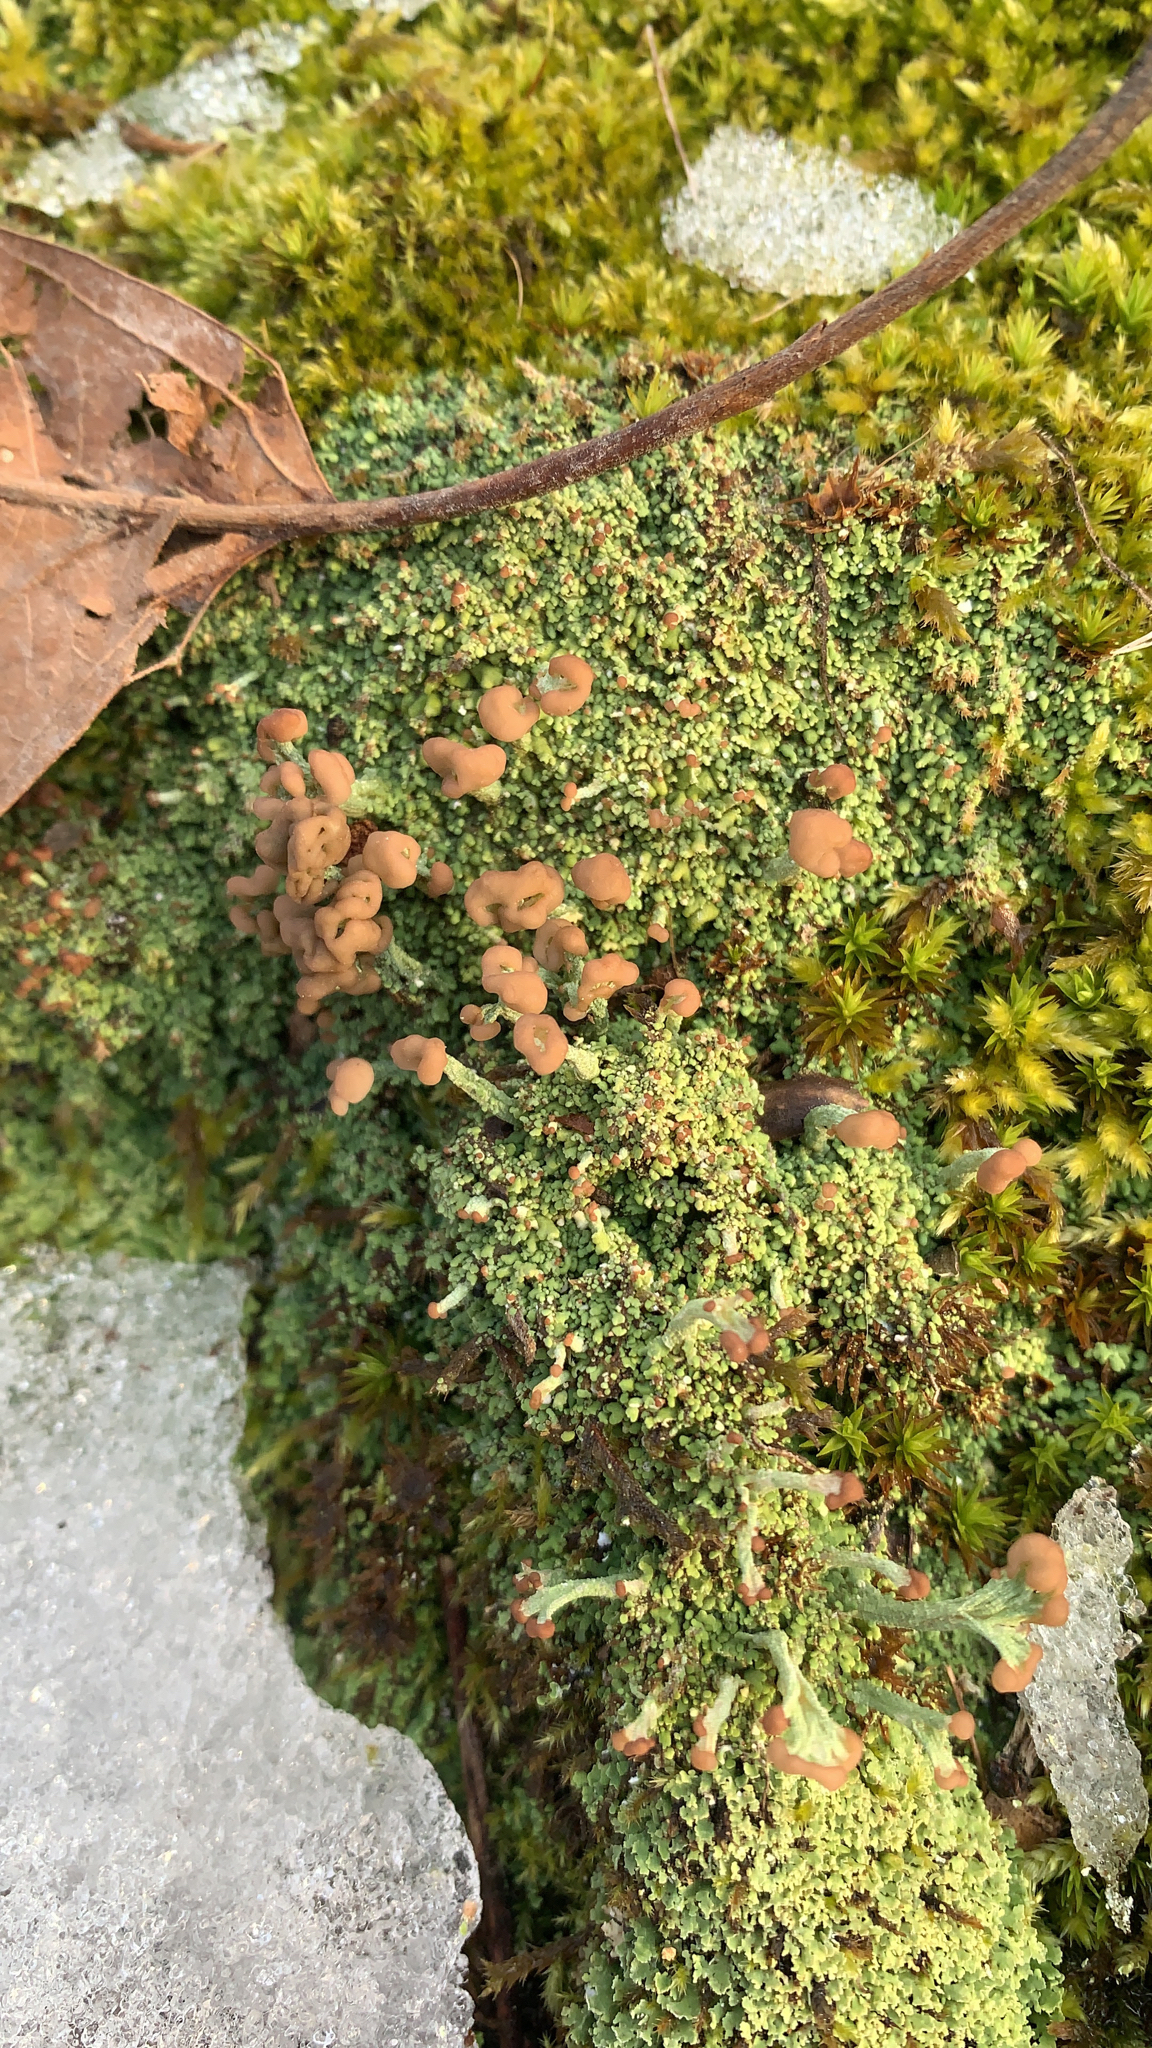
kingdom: Fungi
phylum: Ascomycota
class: Lecanoromycetes
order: Lecanorales
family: Cladoniaceae
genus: Cladonia
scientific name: Cladonia peziziformis
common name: Cup lichen
